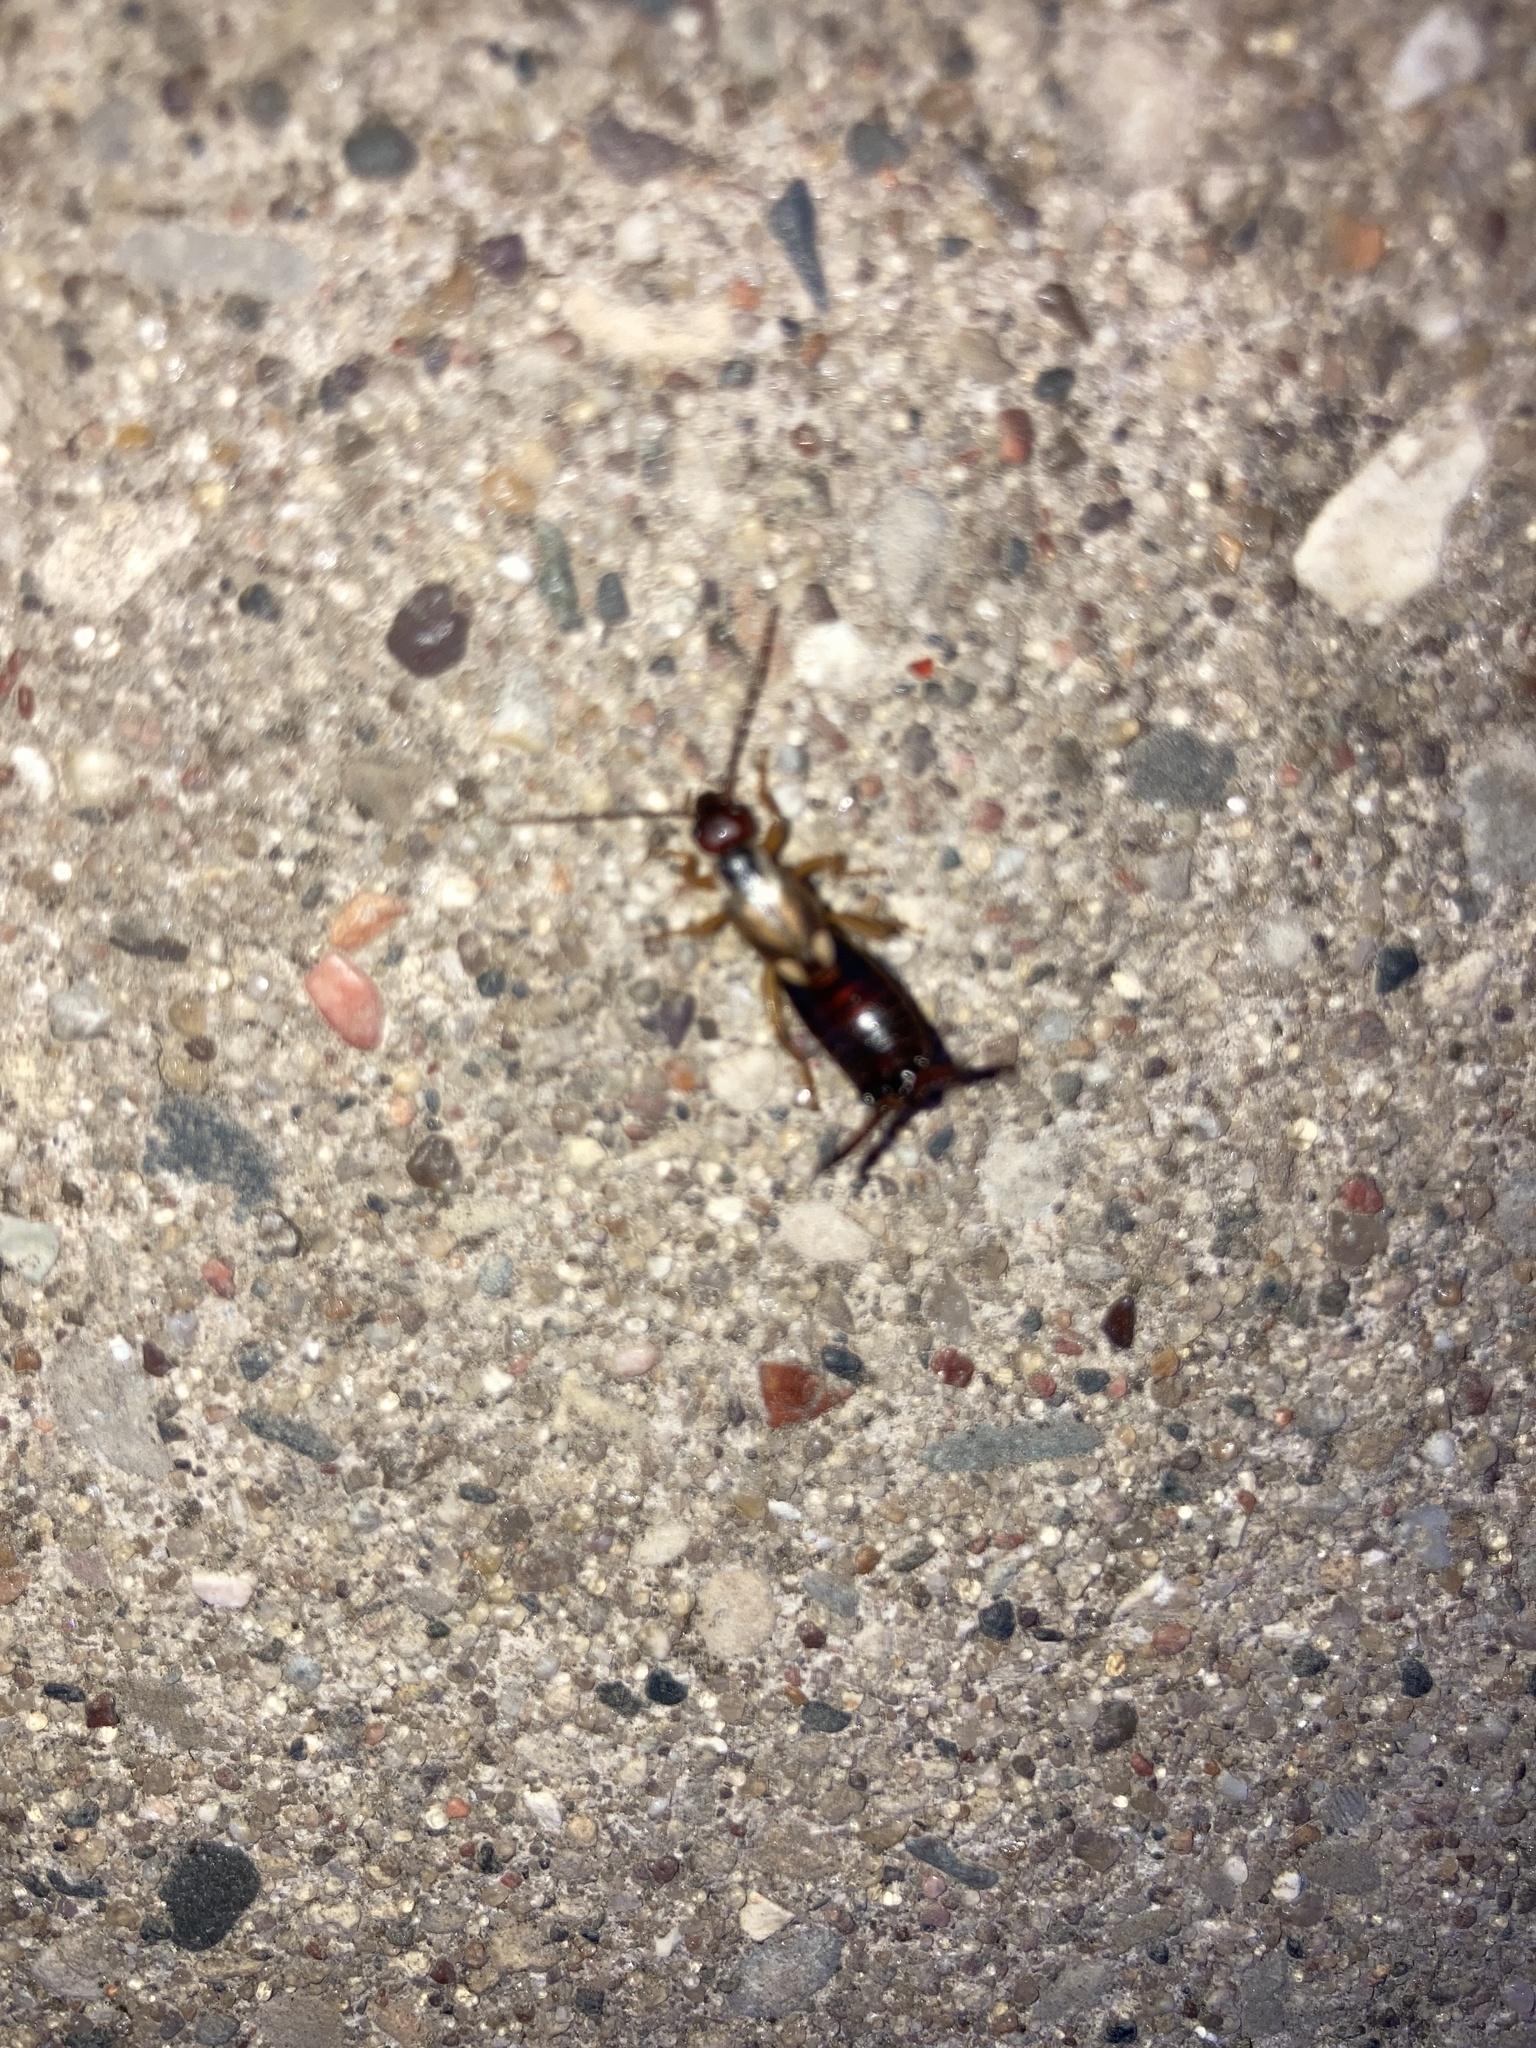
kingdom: Animalia
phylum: Arthropoda
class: Insecta
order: Dermaptera
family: Forficulidae
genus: Forficula
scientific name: Forficula
